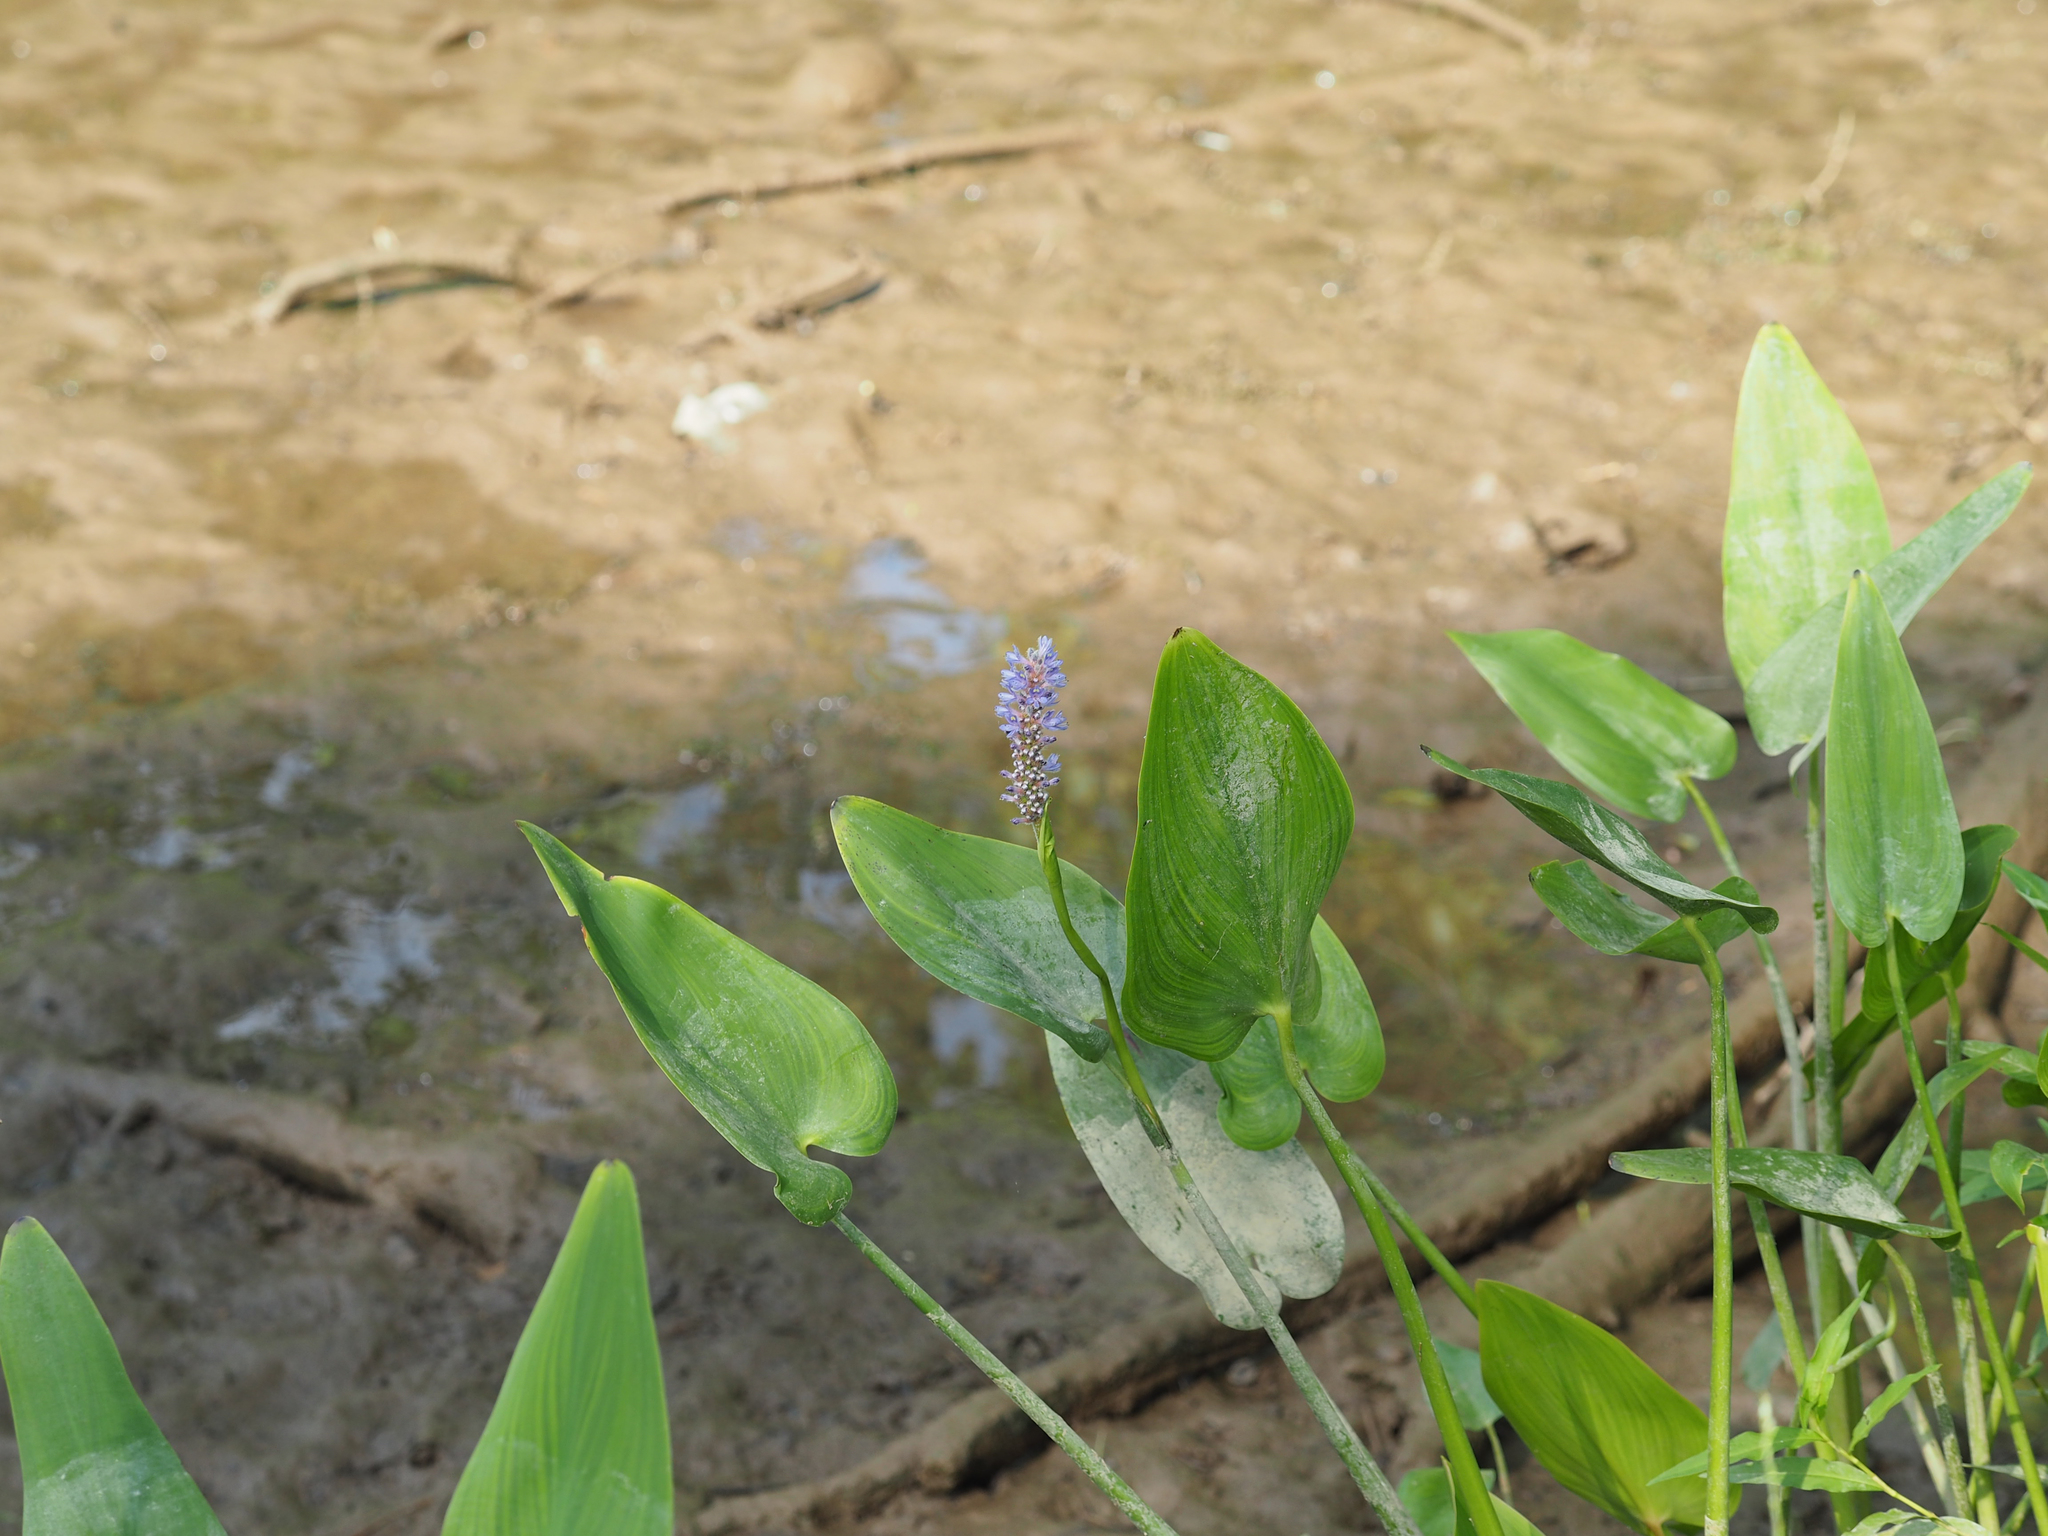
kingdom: Plantae
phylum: Tracheophyta
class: Liliopsida
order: Commelinales
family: Pontederiaceae
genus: Pontederia
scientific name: Pontederia cordata
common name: Pickerelweed
